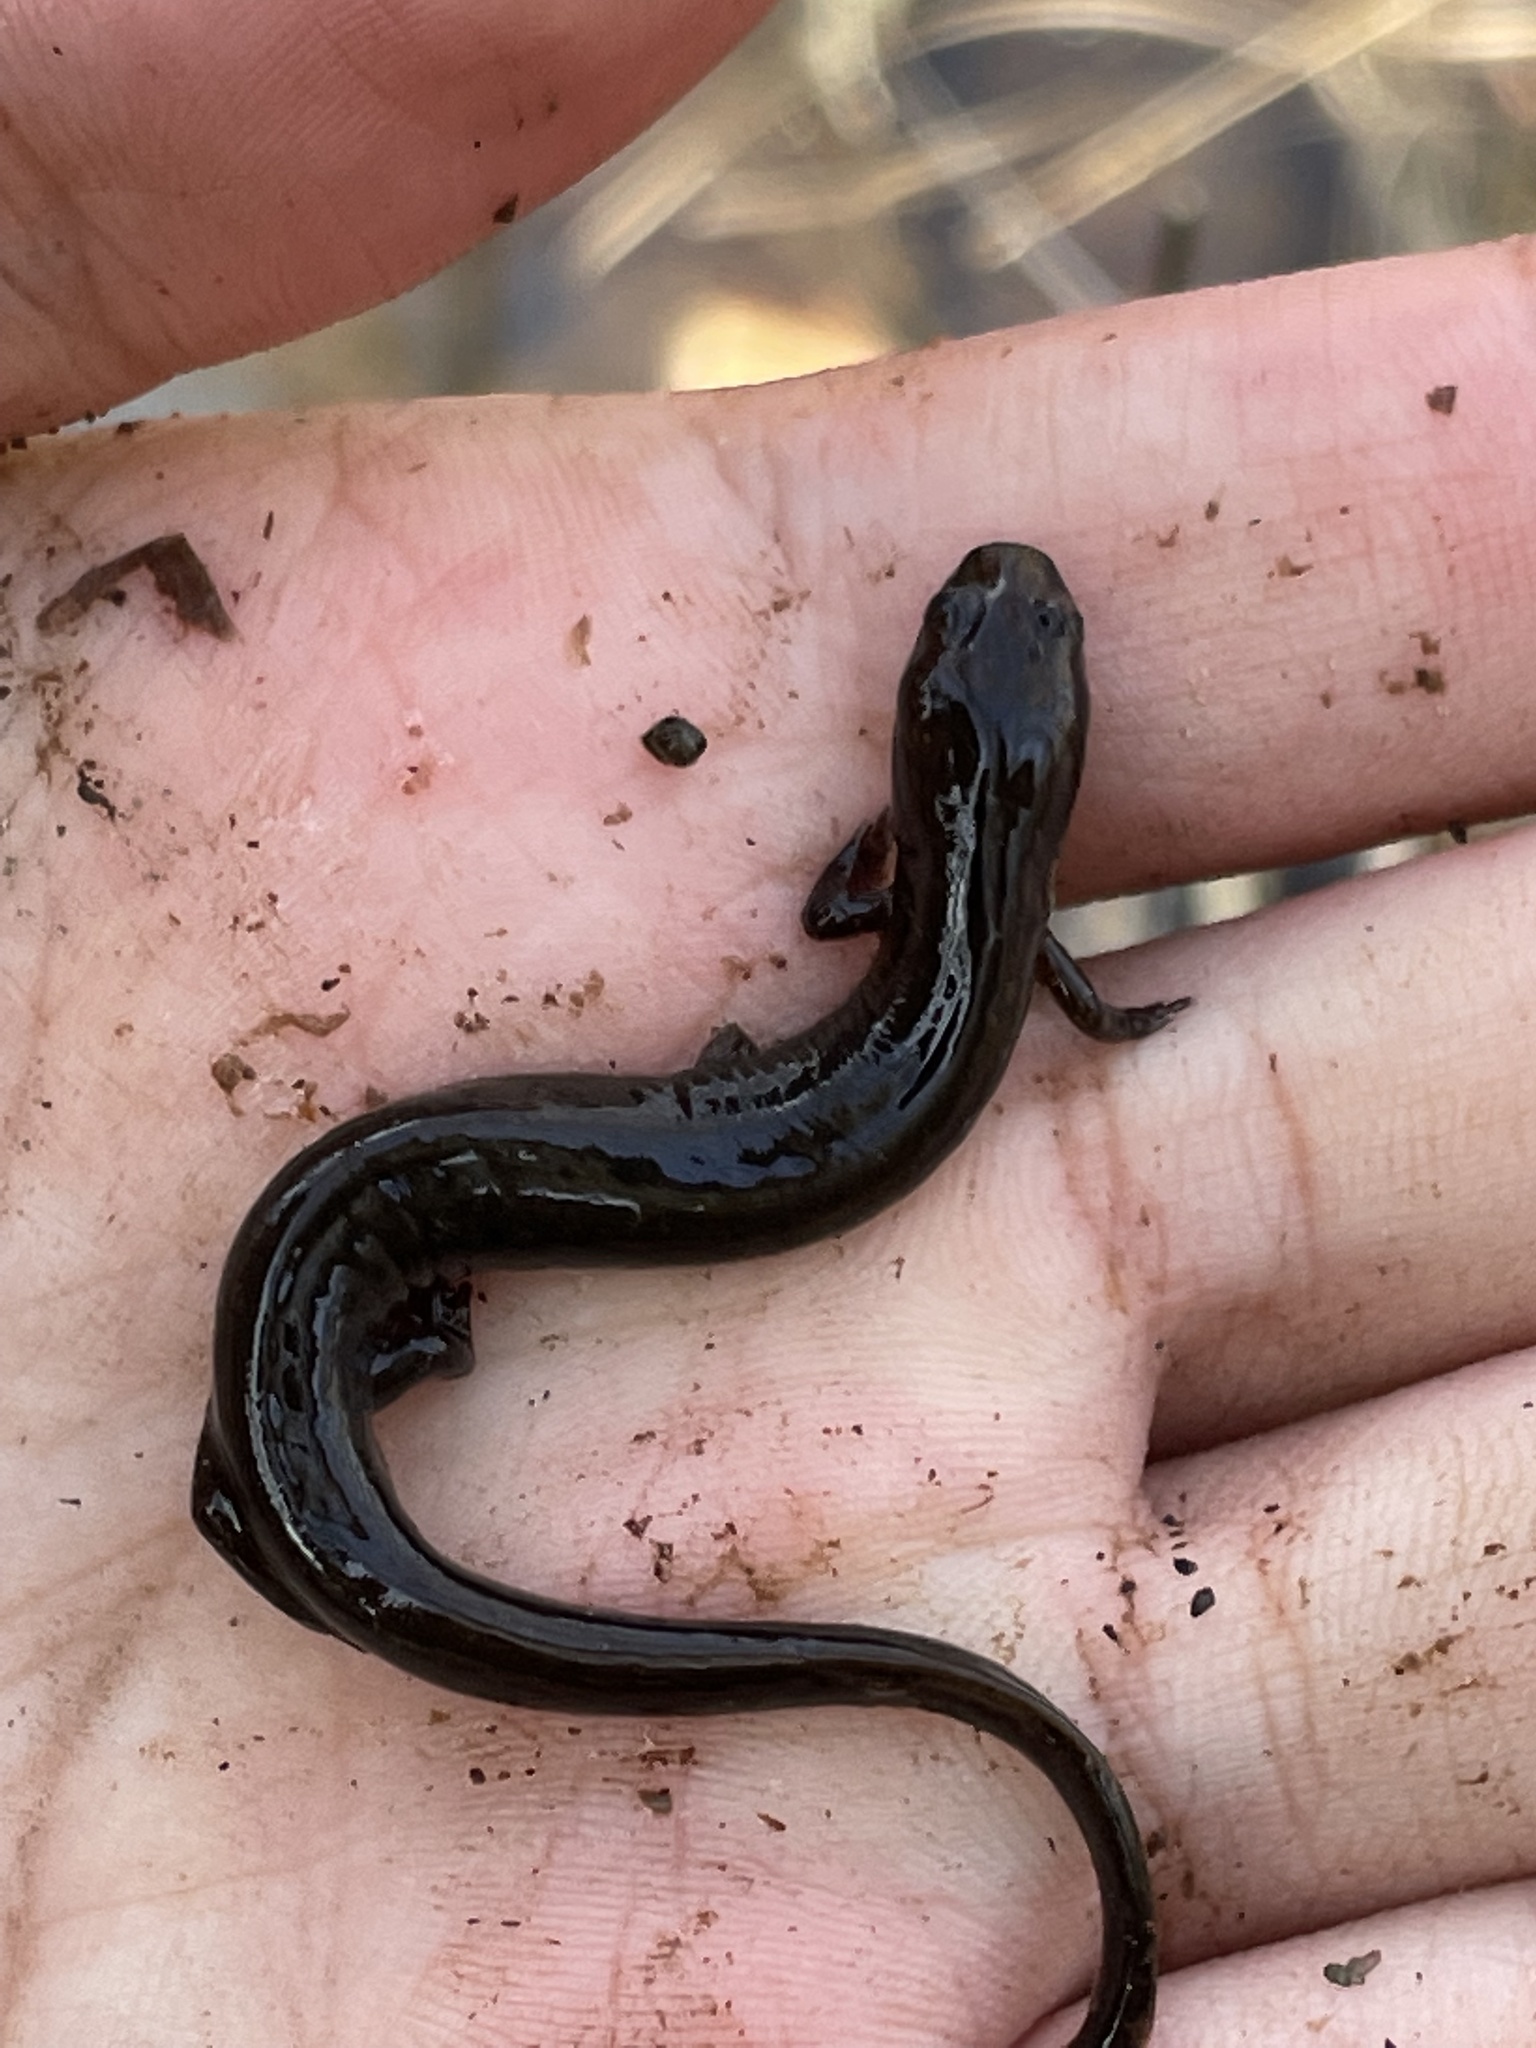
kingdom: Animalia
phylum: Chordata
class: Amphibia
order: Caudata
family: Plethodontidae
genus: Stereochilus
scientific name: Stereochilus marginatus
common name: Many-lined salamander
